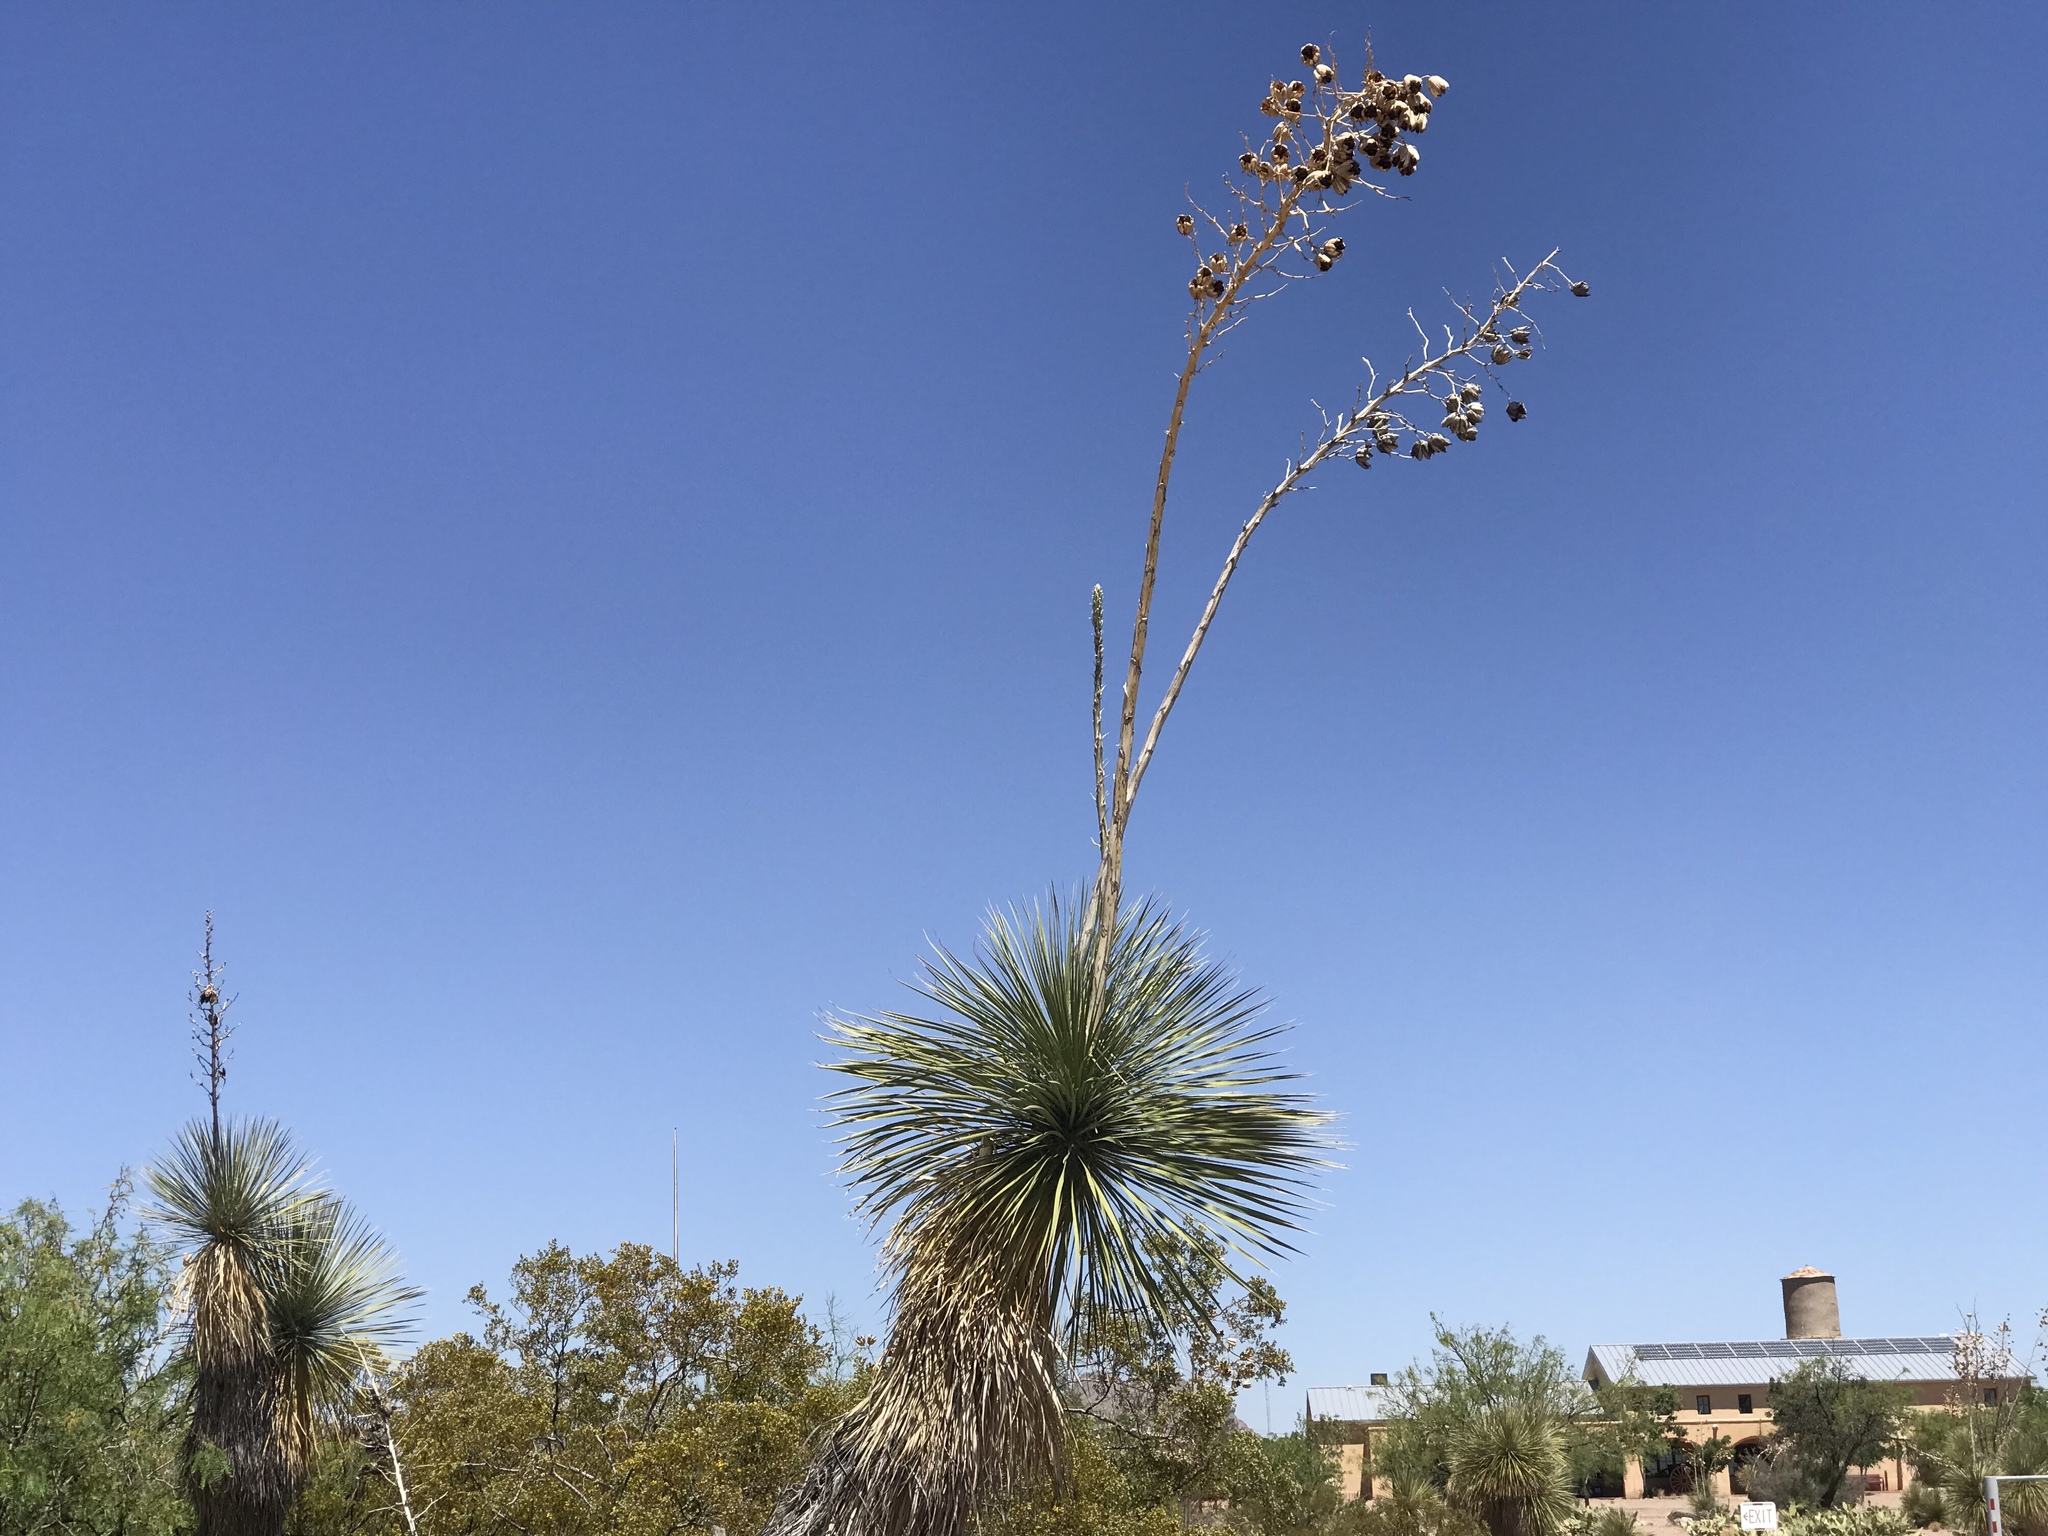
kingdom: Plantae
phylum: Tracheophyta
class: Liliopsida
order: Asparagales
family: Asparagaceae
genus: Yucca
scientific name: Yucca elata
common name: Palmella
